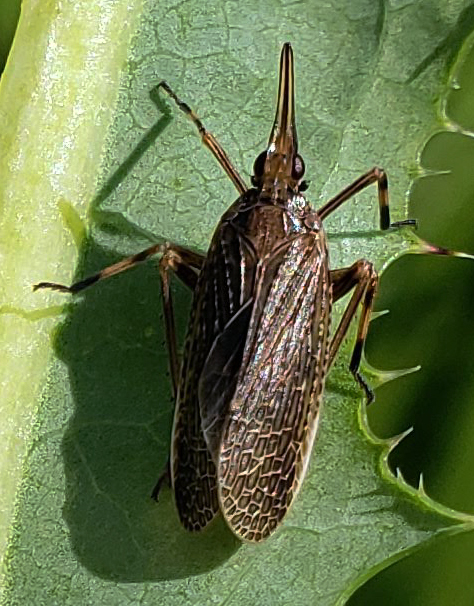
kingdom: Animalia
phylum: Arthropoda
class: Insecta
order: Hemiptera
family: Dictyopharidae
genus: Scolops
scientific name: Scolops sulcipes
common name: Partridge planthopper
